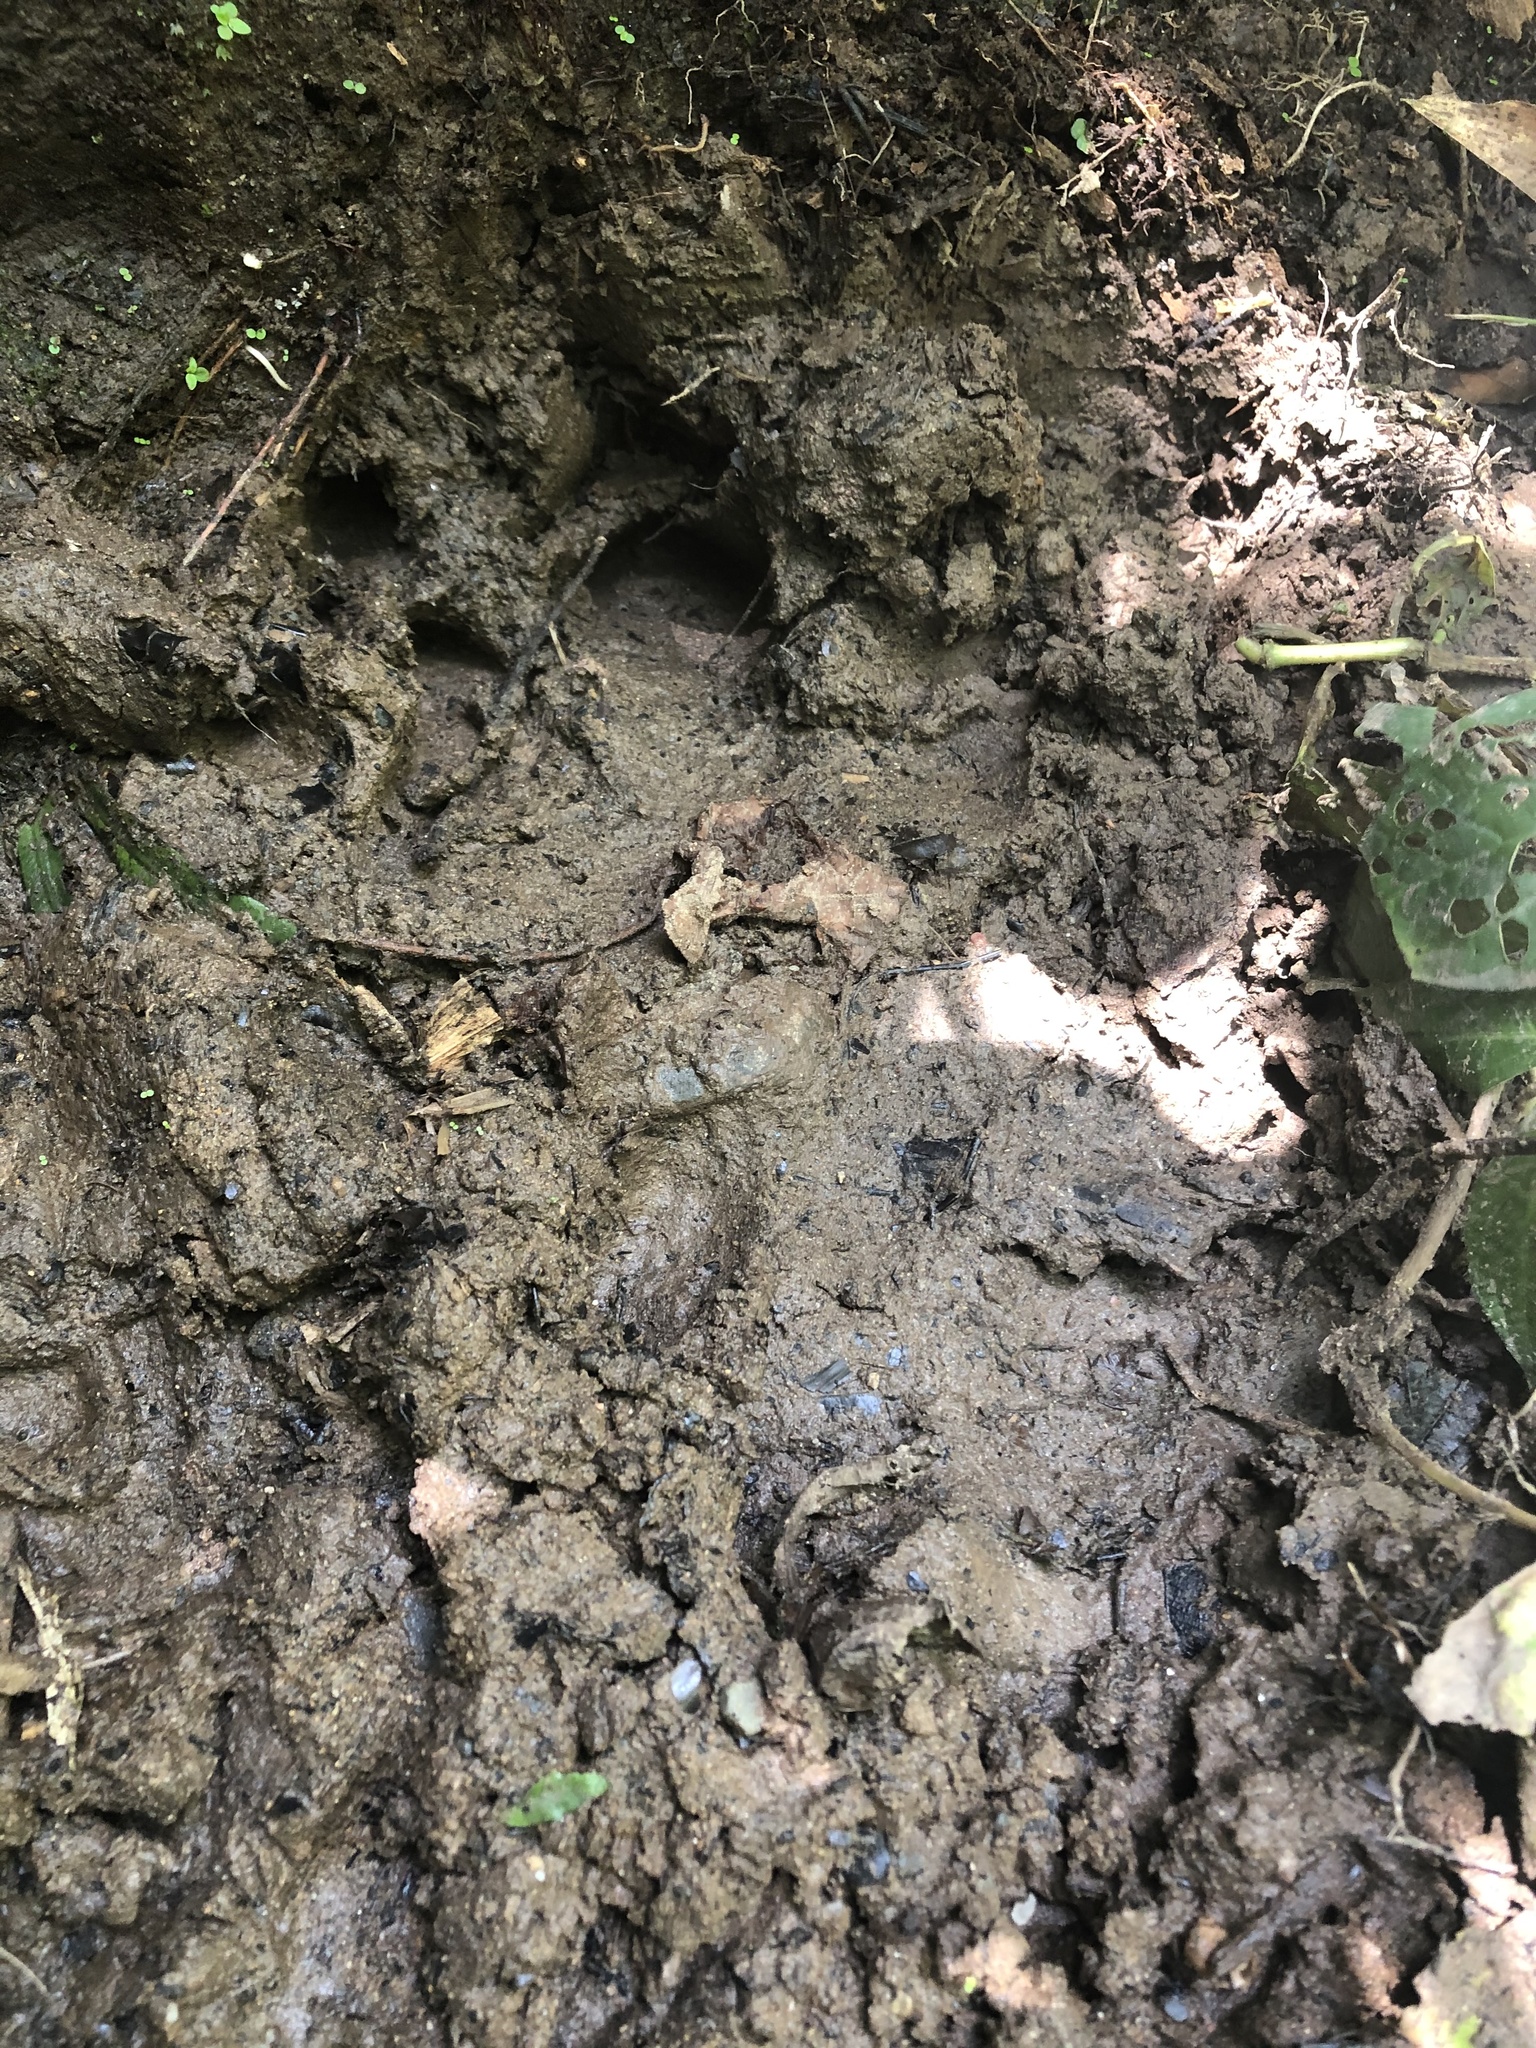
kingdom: Animalia
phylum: Chordata
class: Mammalia
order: Perissodactyla
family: Tapiridae
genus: Tapirus
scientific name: Tapirus terrestris
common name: Brazilian tapir
